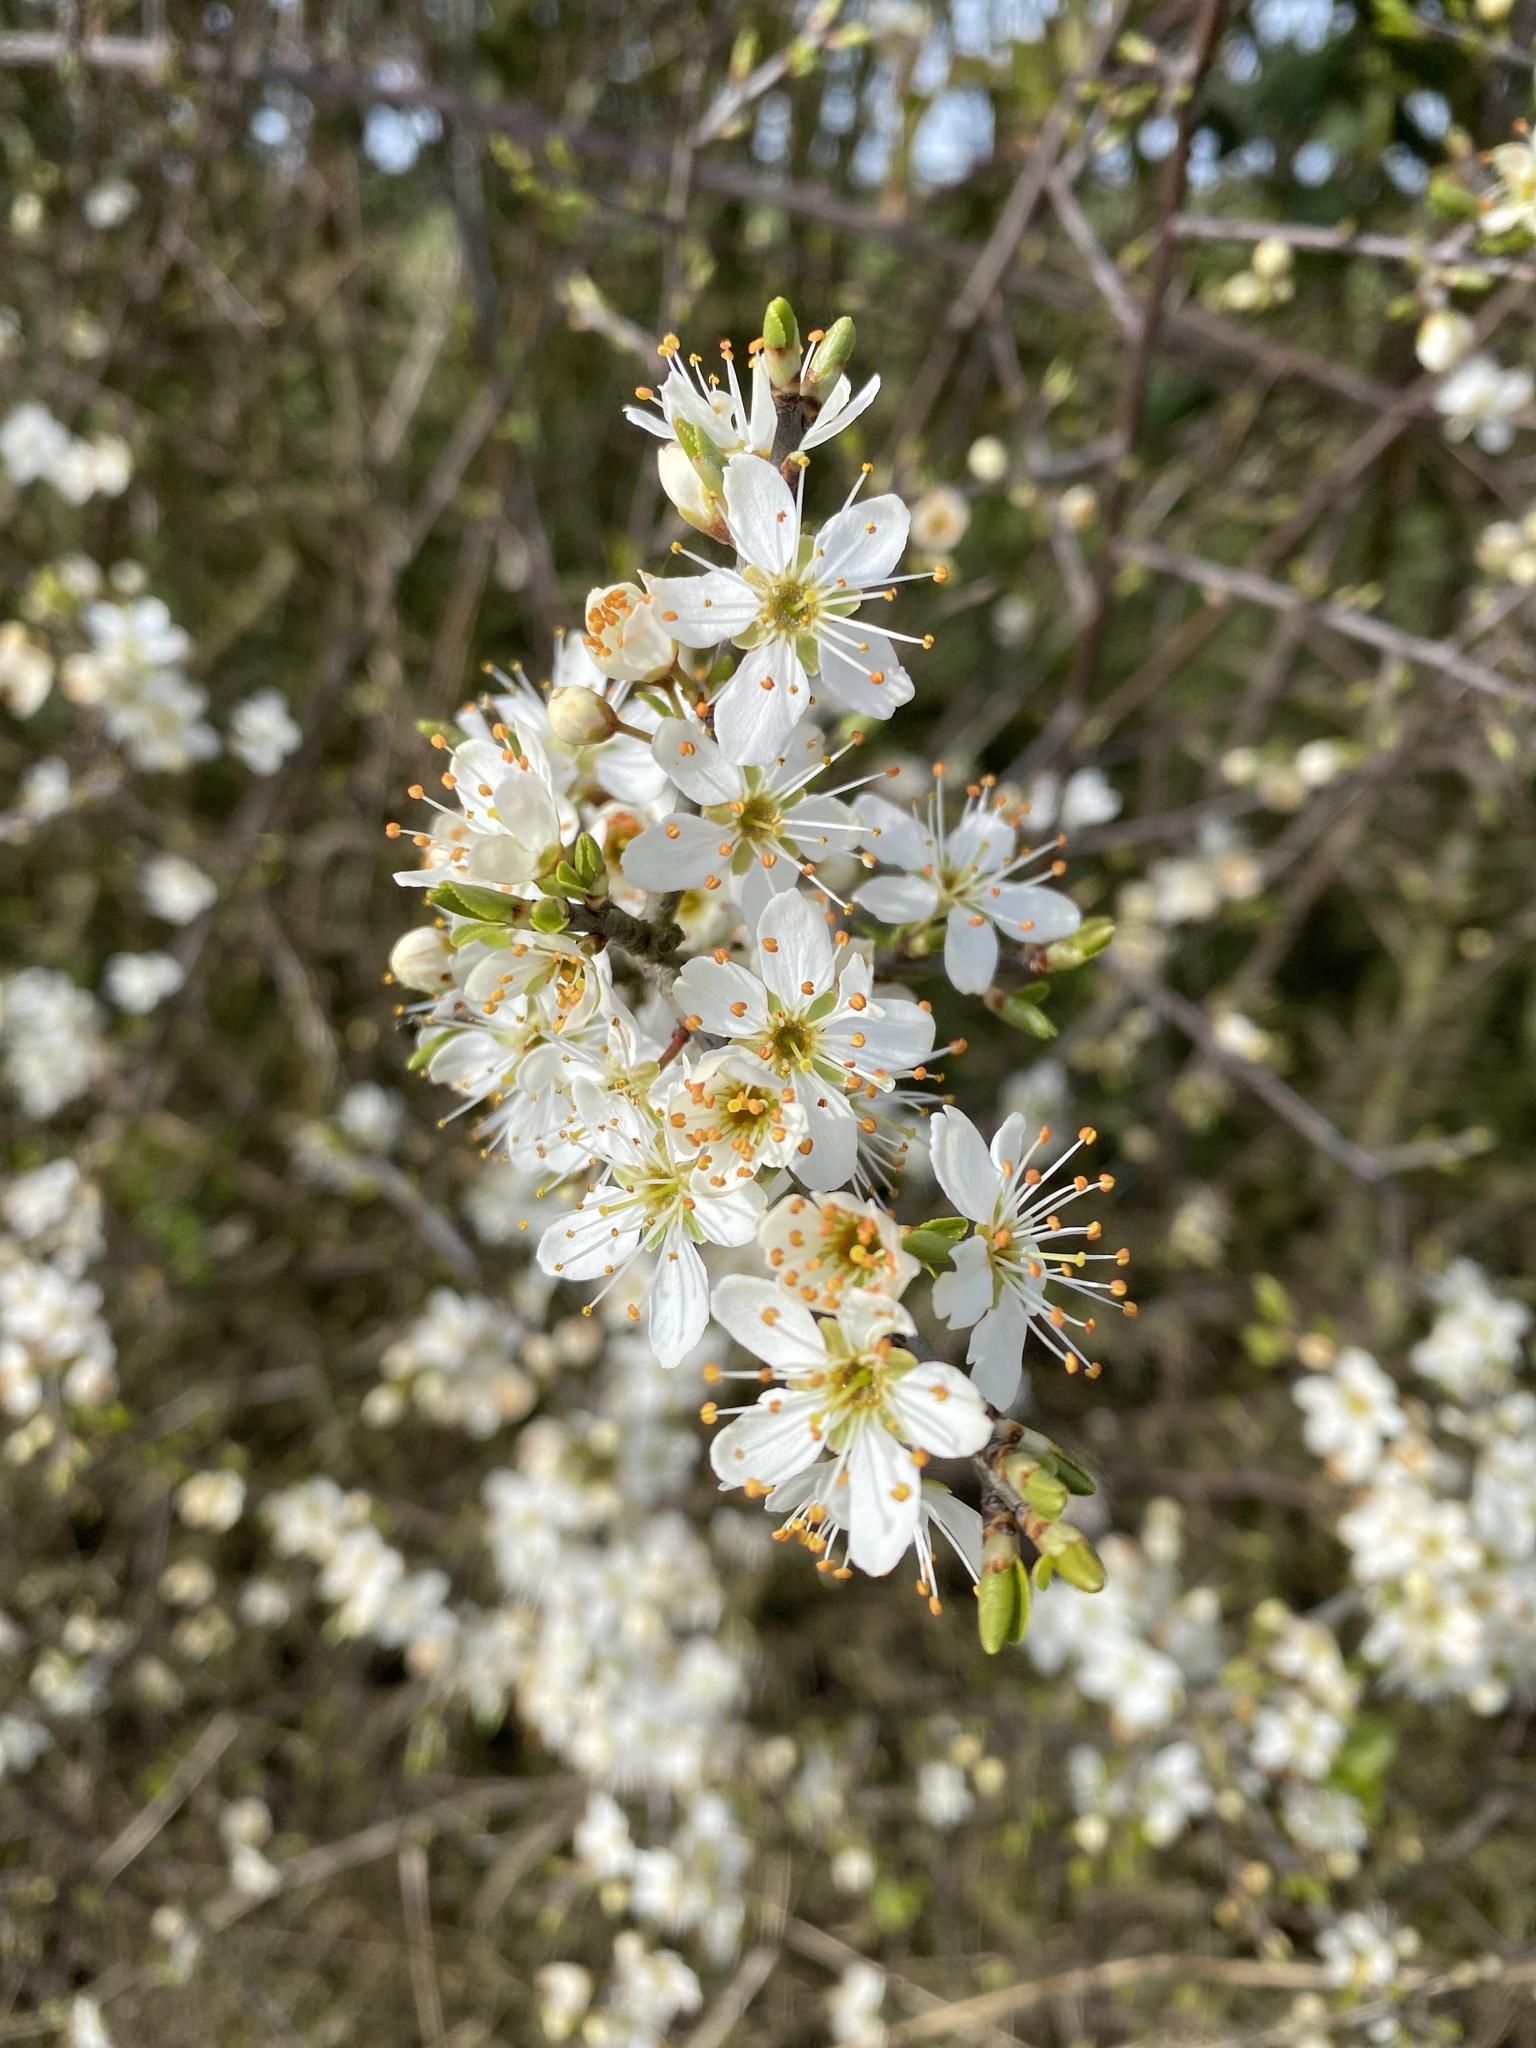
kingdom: Plantae
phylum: Tracheophyta
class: Magnoliopsida
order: Rosales
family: Rosaceae
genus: Prunus
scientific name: Prunus spinosa
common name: Blackthorn
